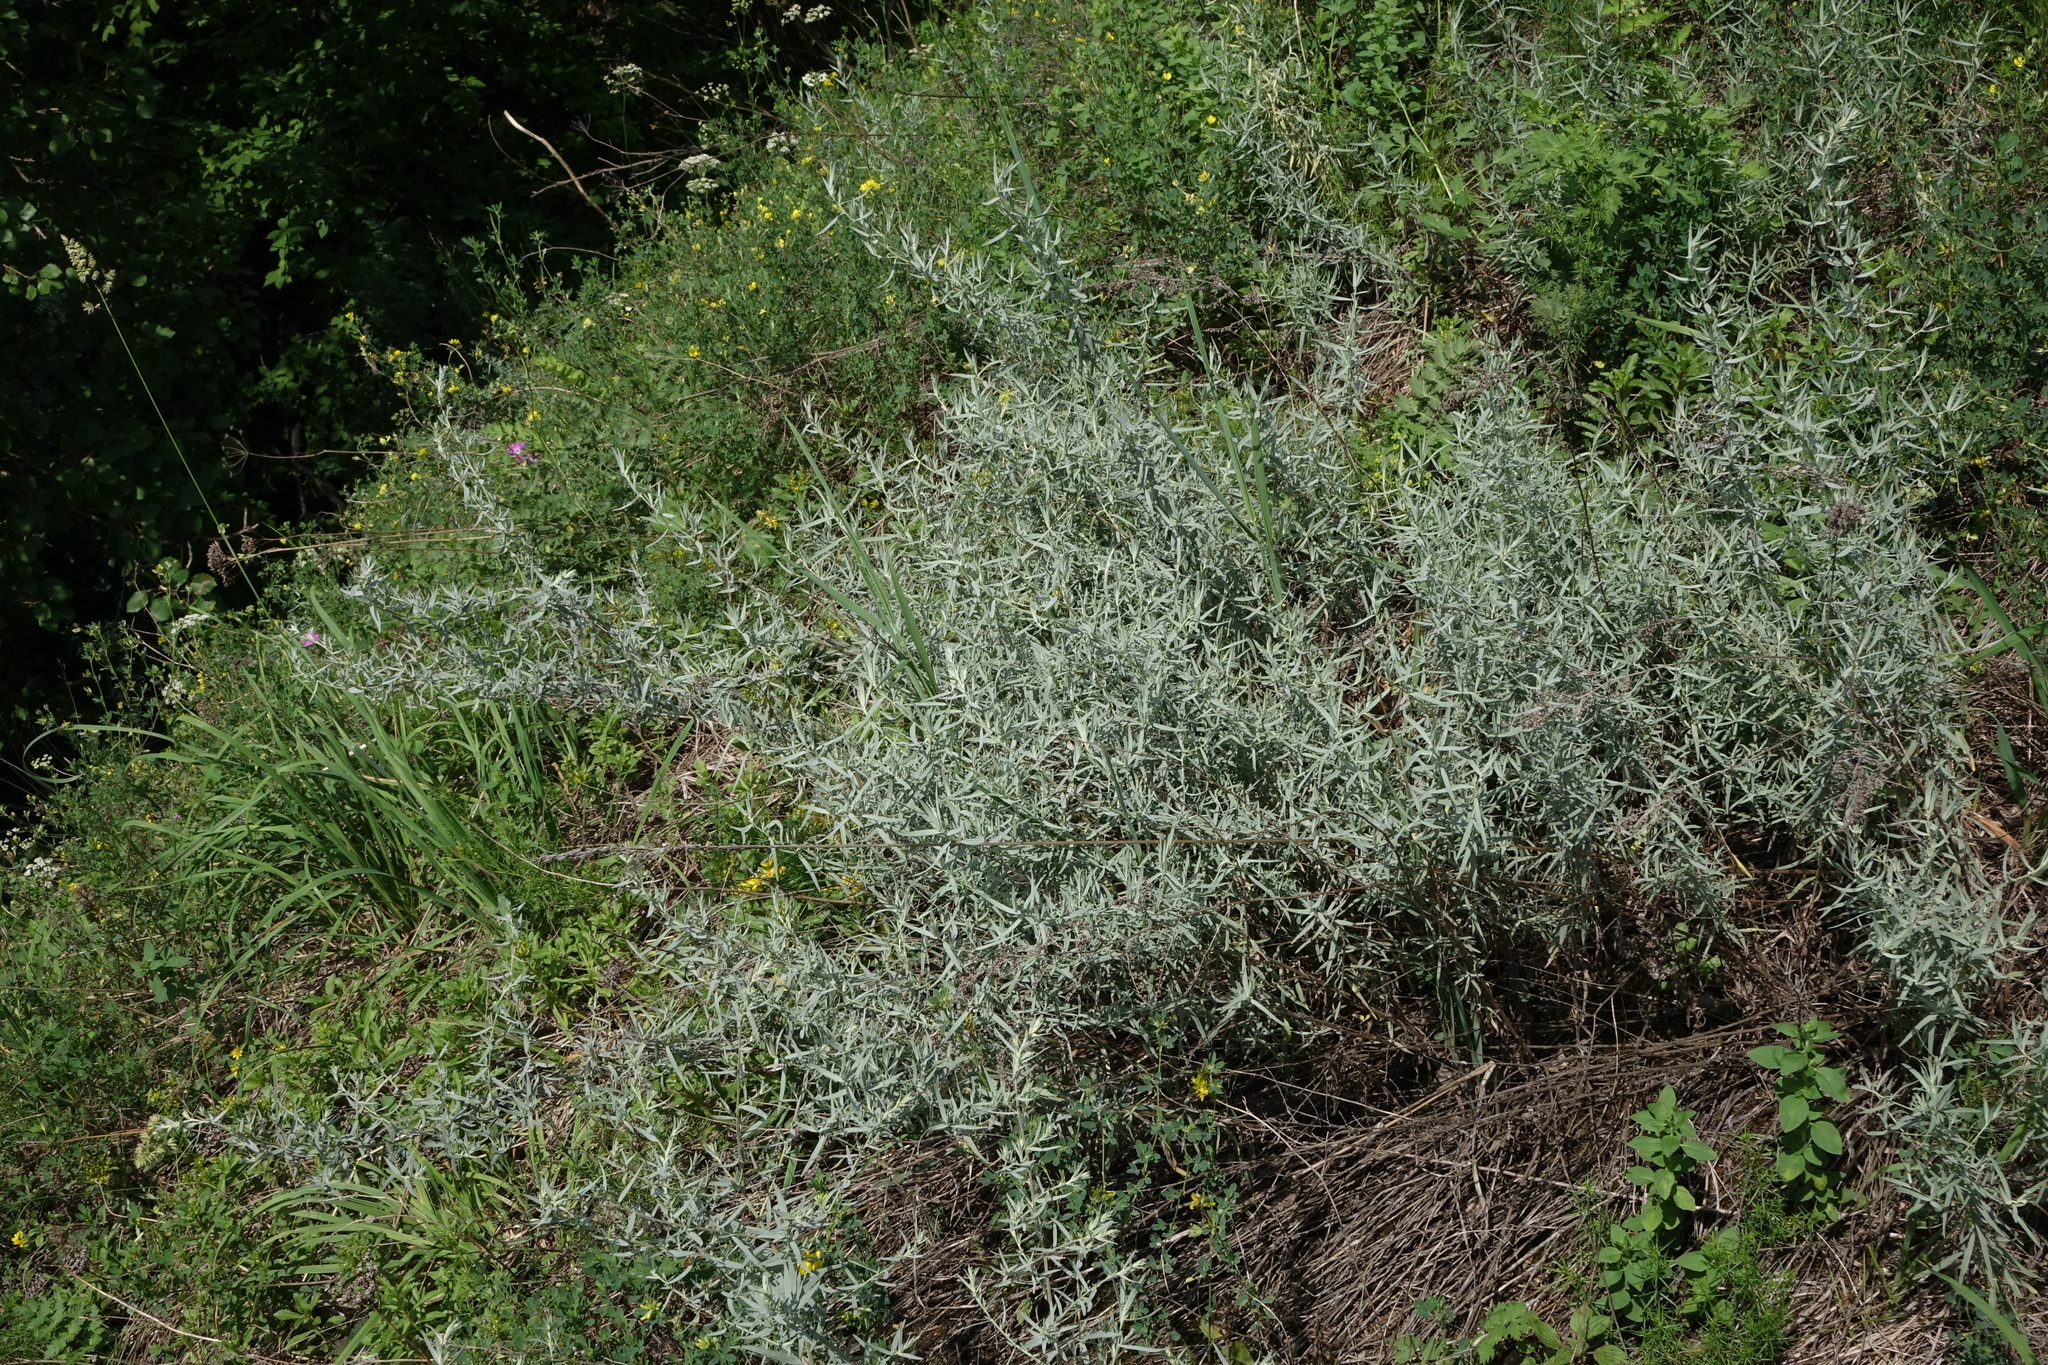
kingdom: Plantae
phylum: Tracheophyta
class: Magnoliopsida
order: Asterales
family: Asteraceae
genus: Artemisia
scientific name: Artemisia glauca
